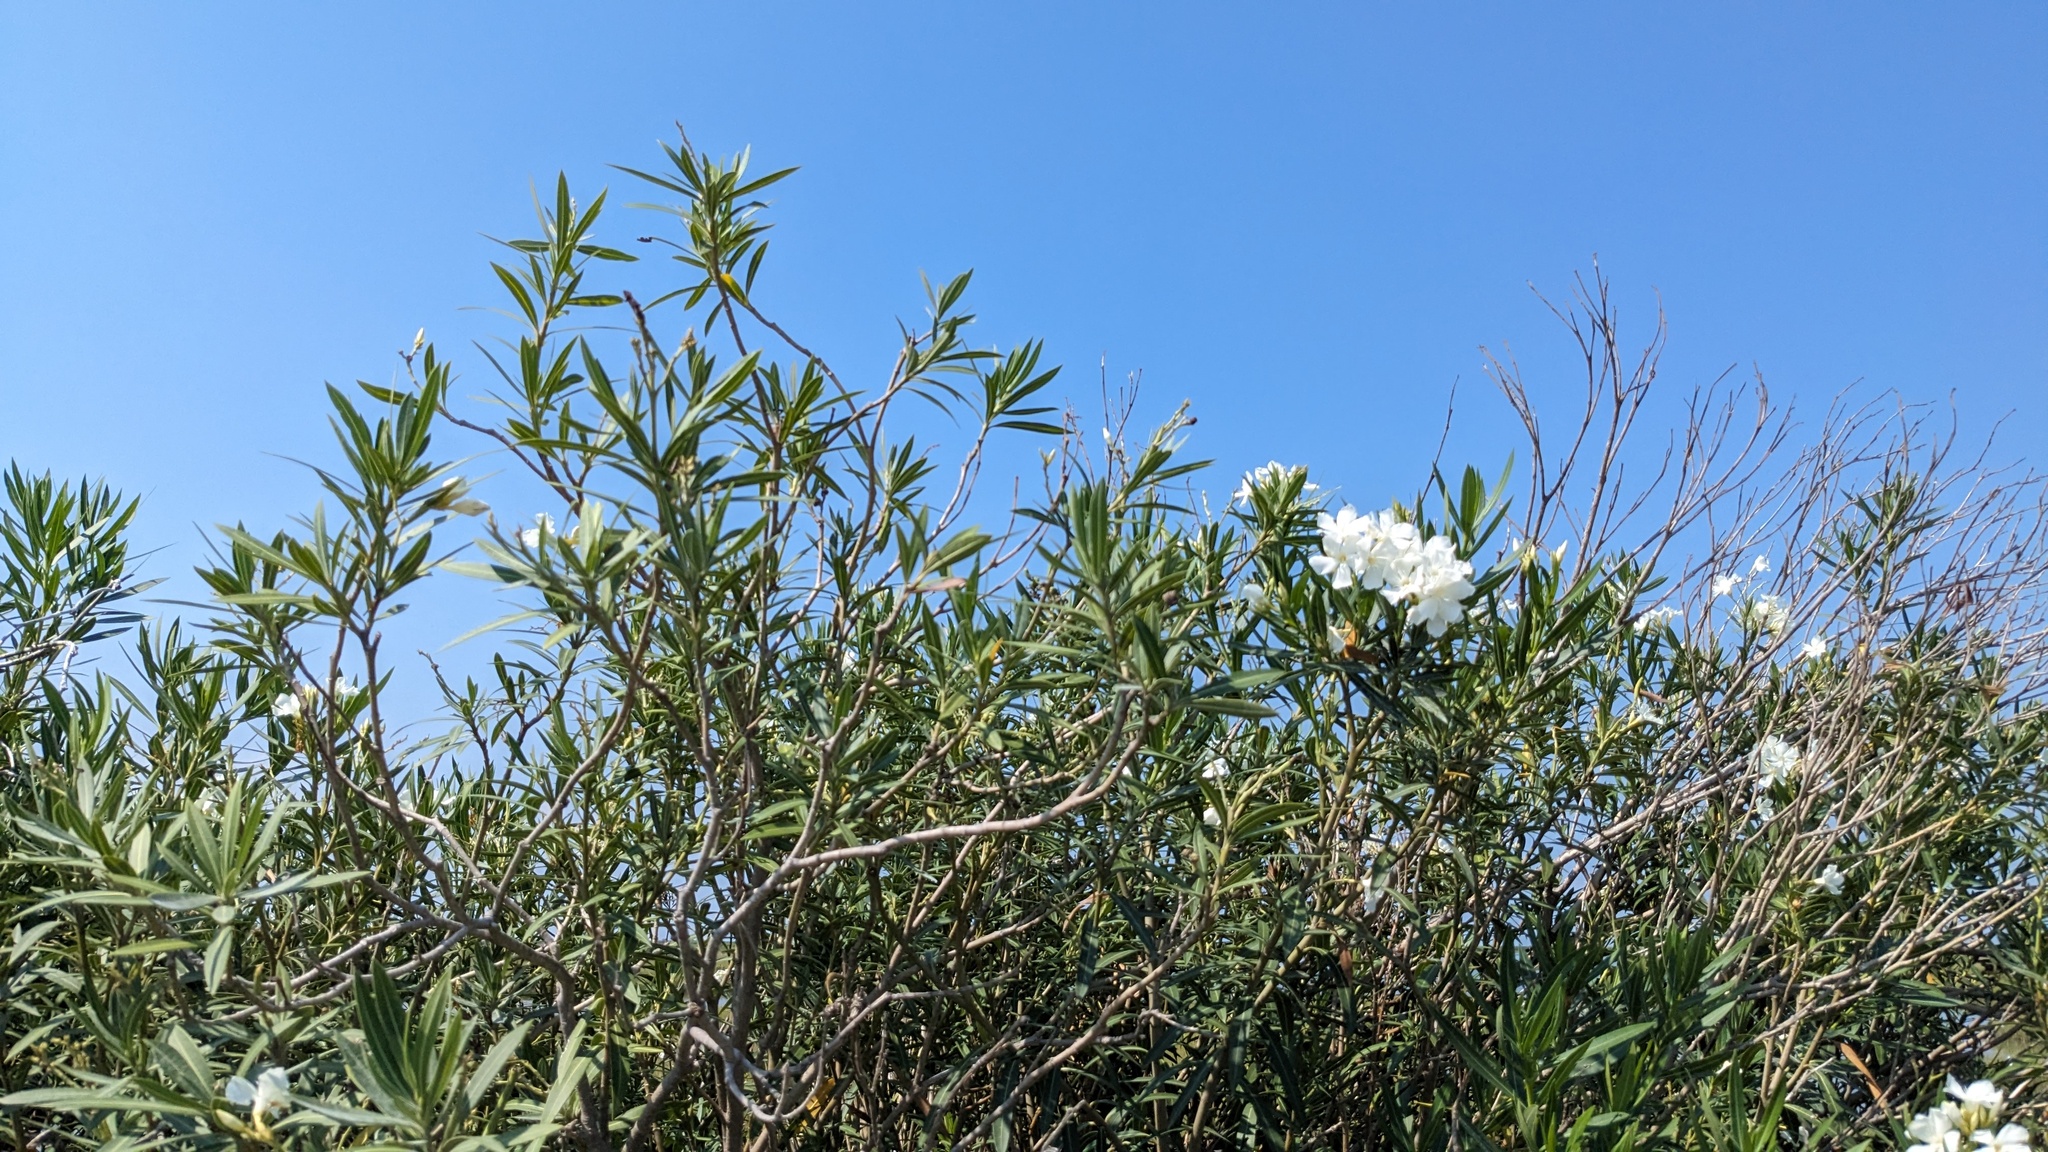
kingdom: Plantae
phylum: Tracheophyta
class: Magnoliopsida
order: Gentianales
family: Apocynaceae
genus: Nerium
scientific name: Nerium oleander
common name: Oleander
